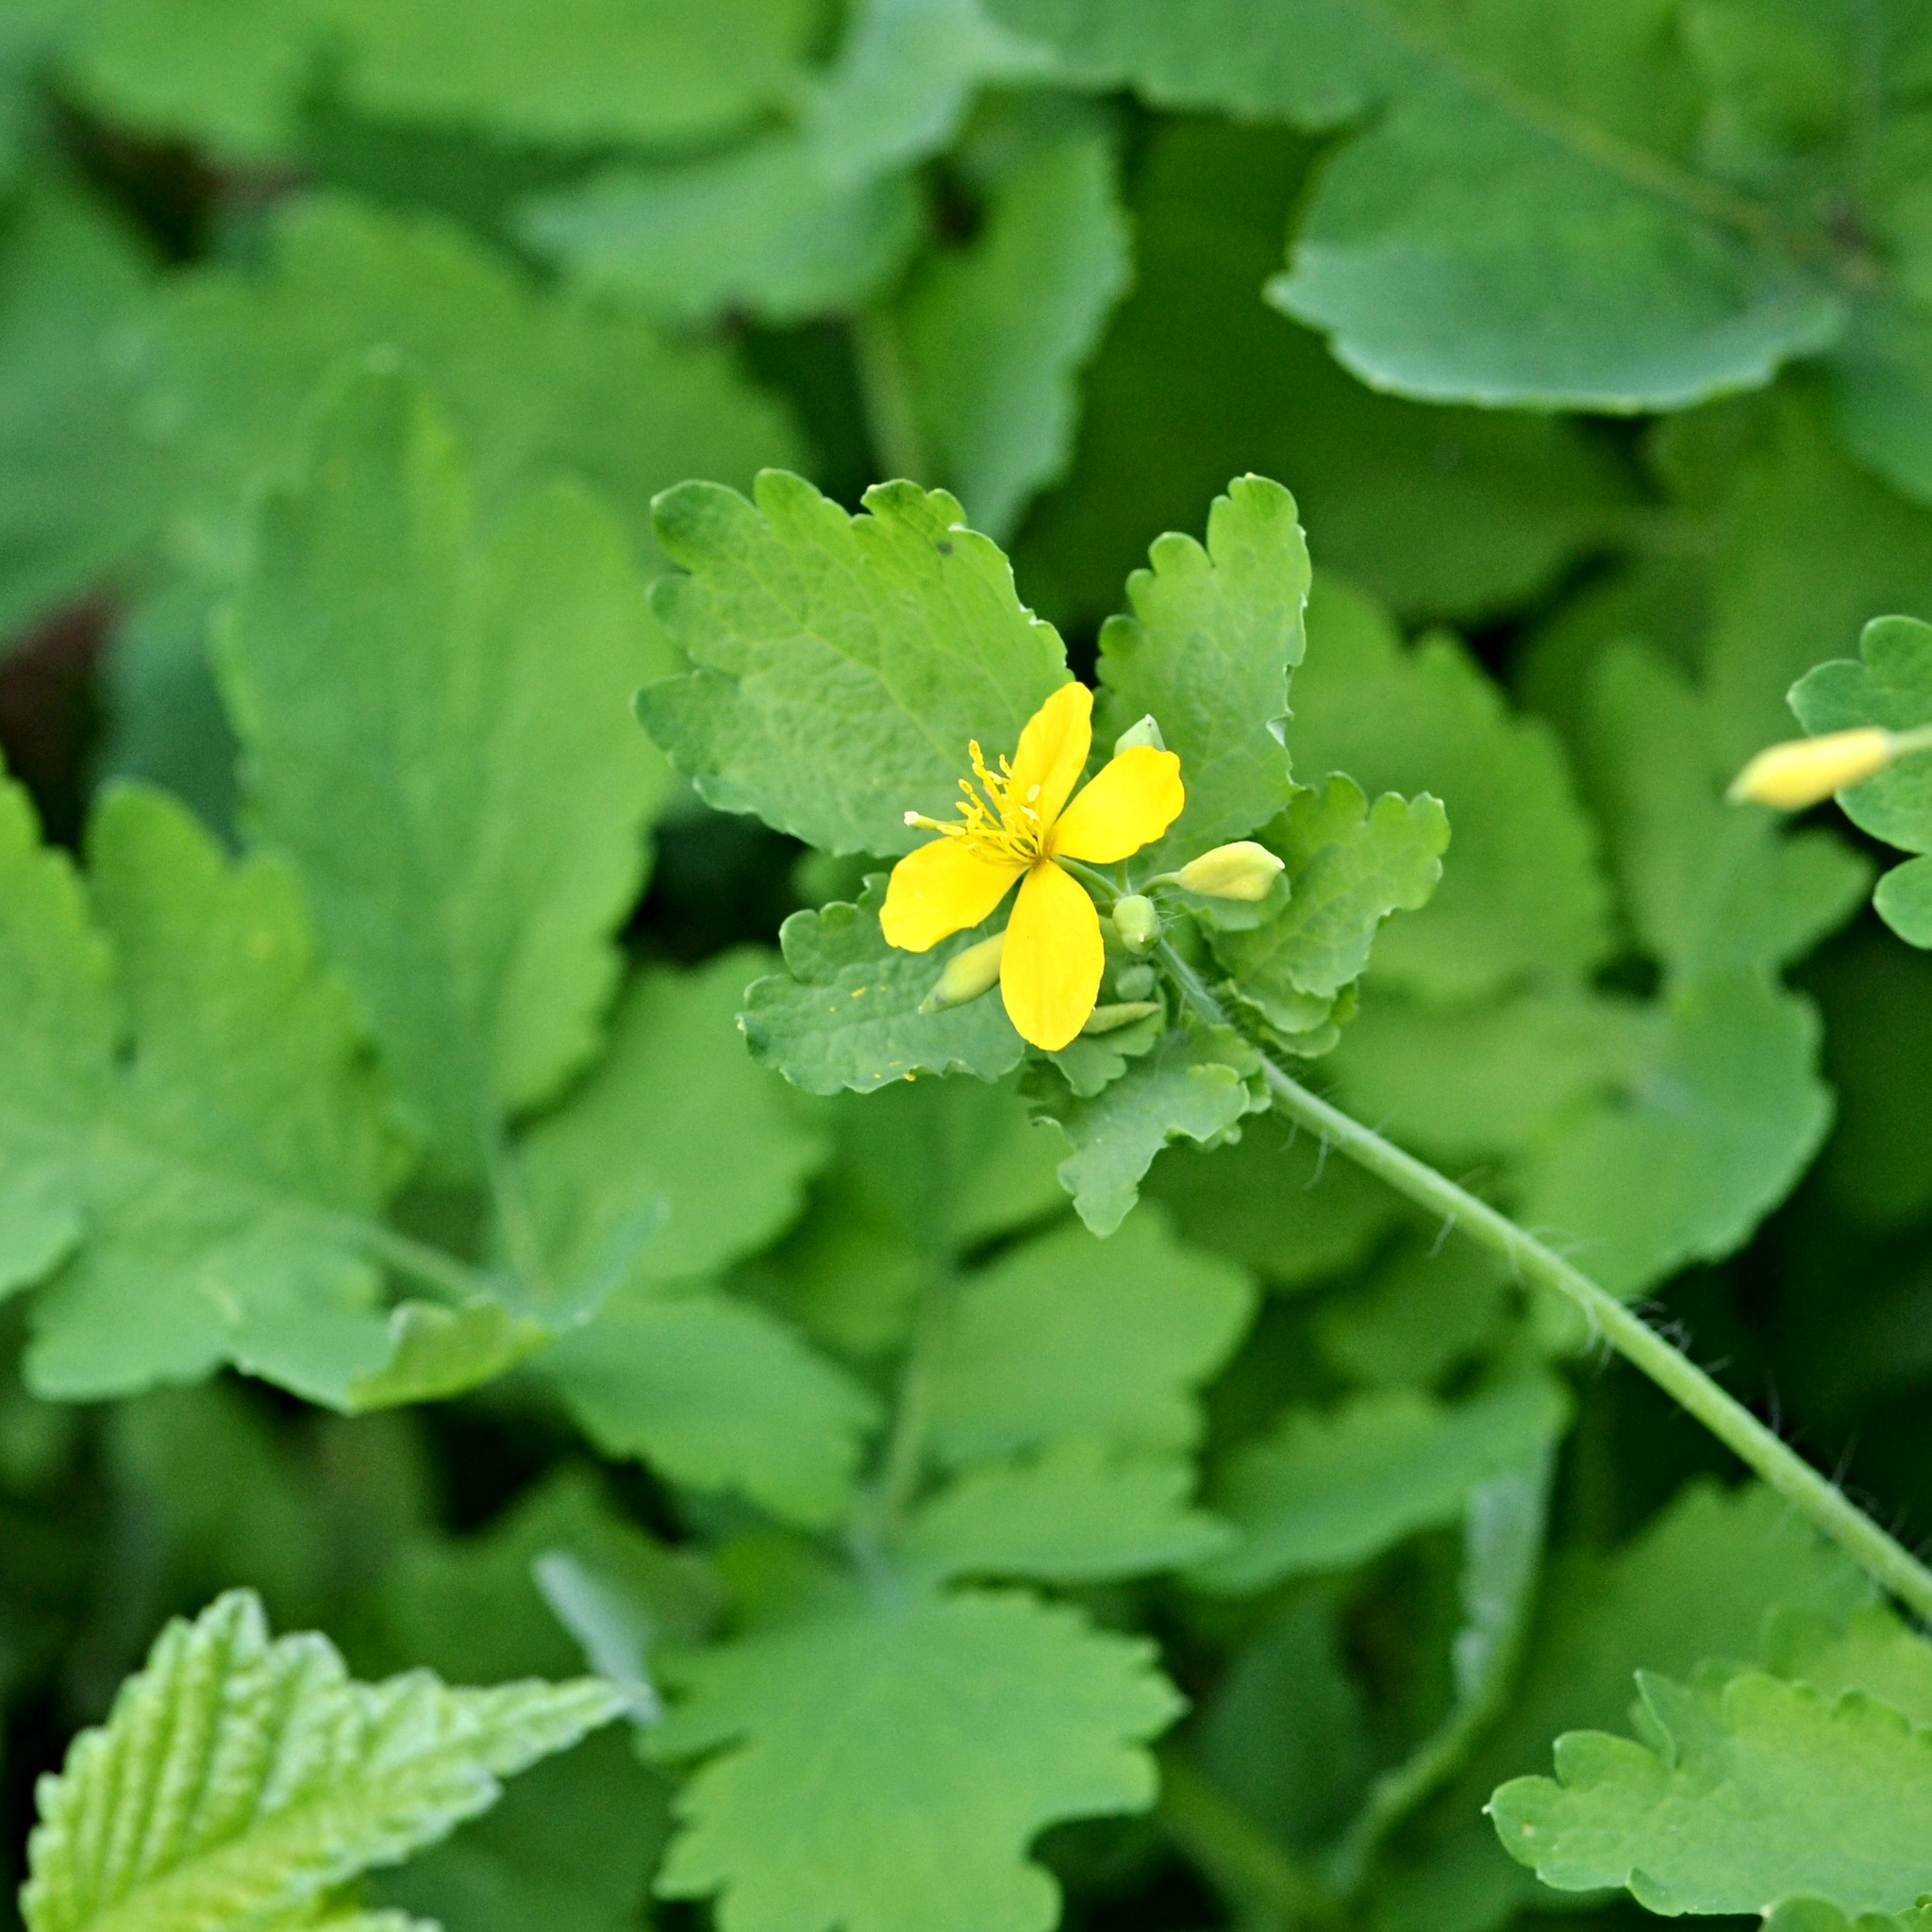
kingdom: Plantae
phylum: Tracheophyta
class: Magnoliopsida
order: Ranunculales
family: Papaveraceae
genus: Chelidonium
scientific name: Chelidonium majus
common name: Greater celandine
